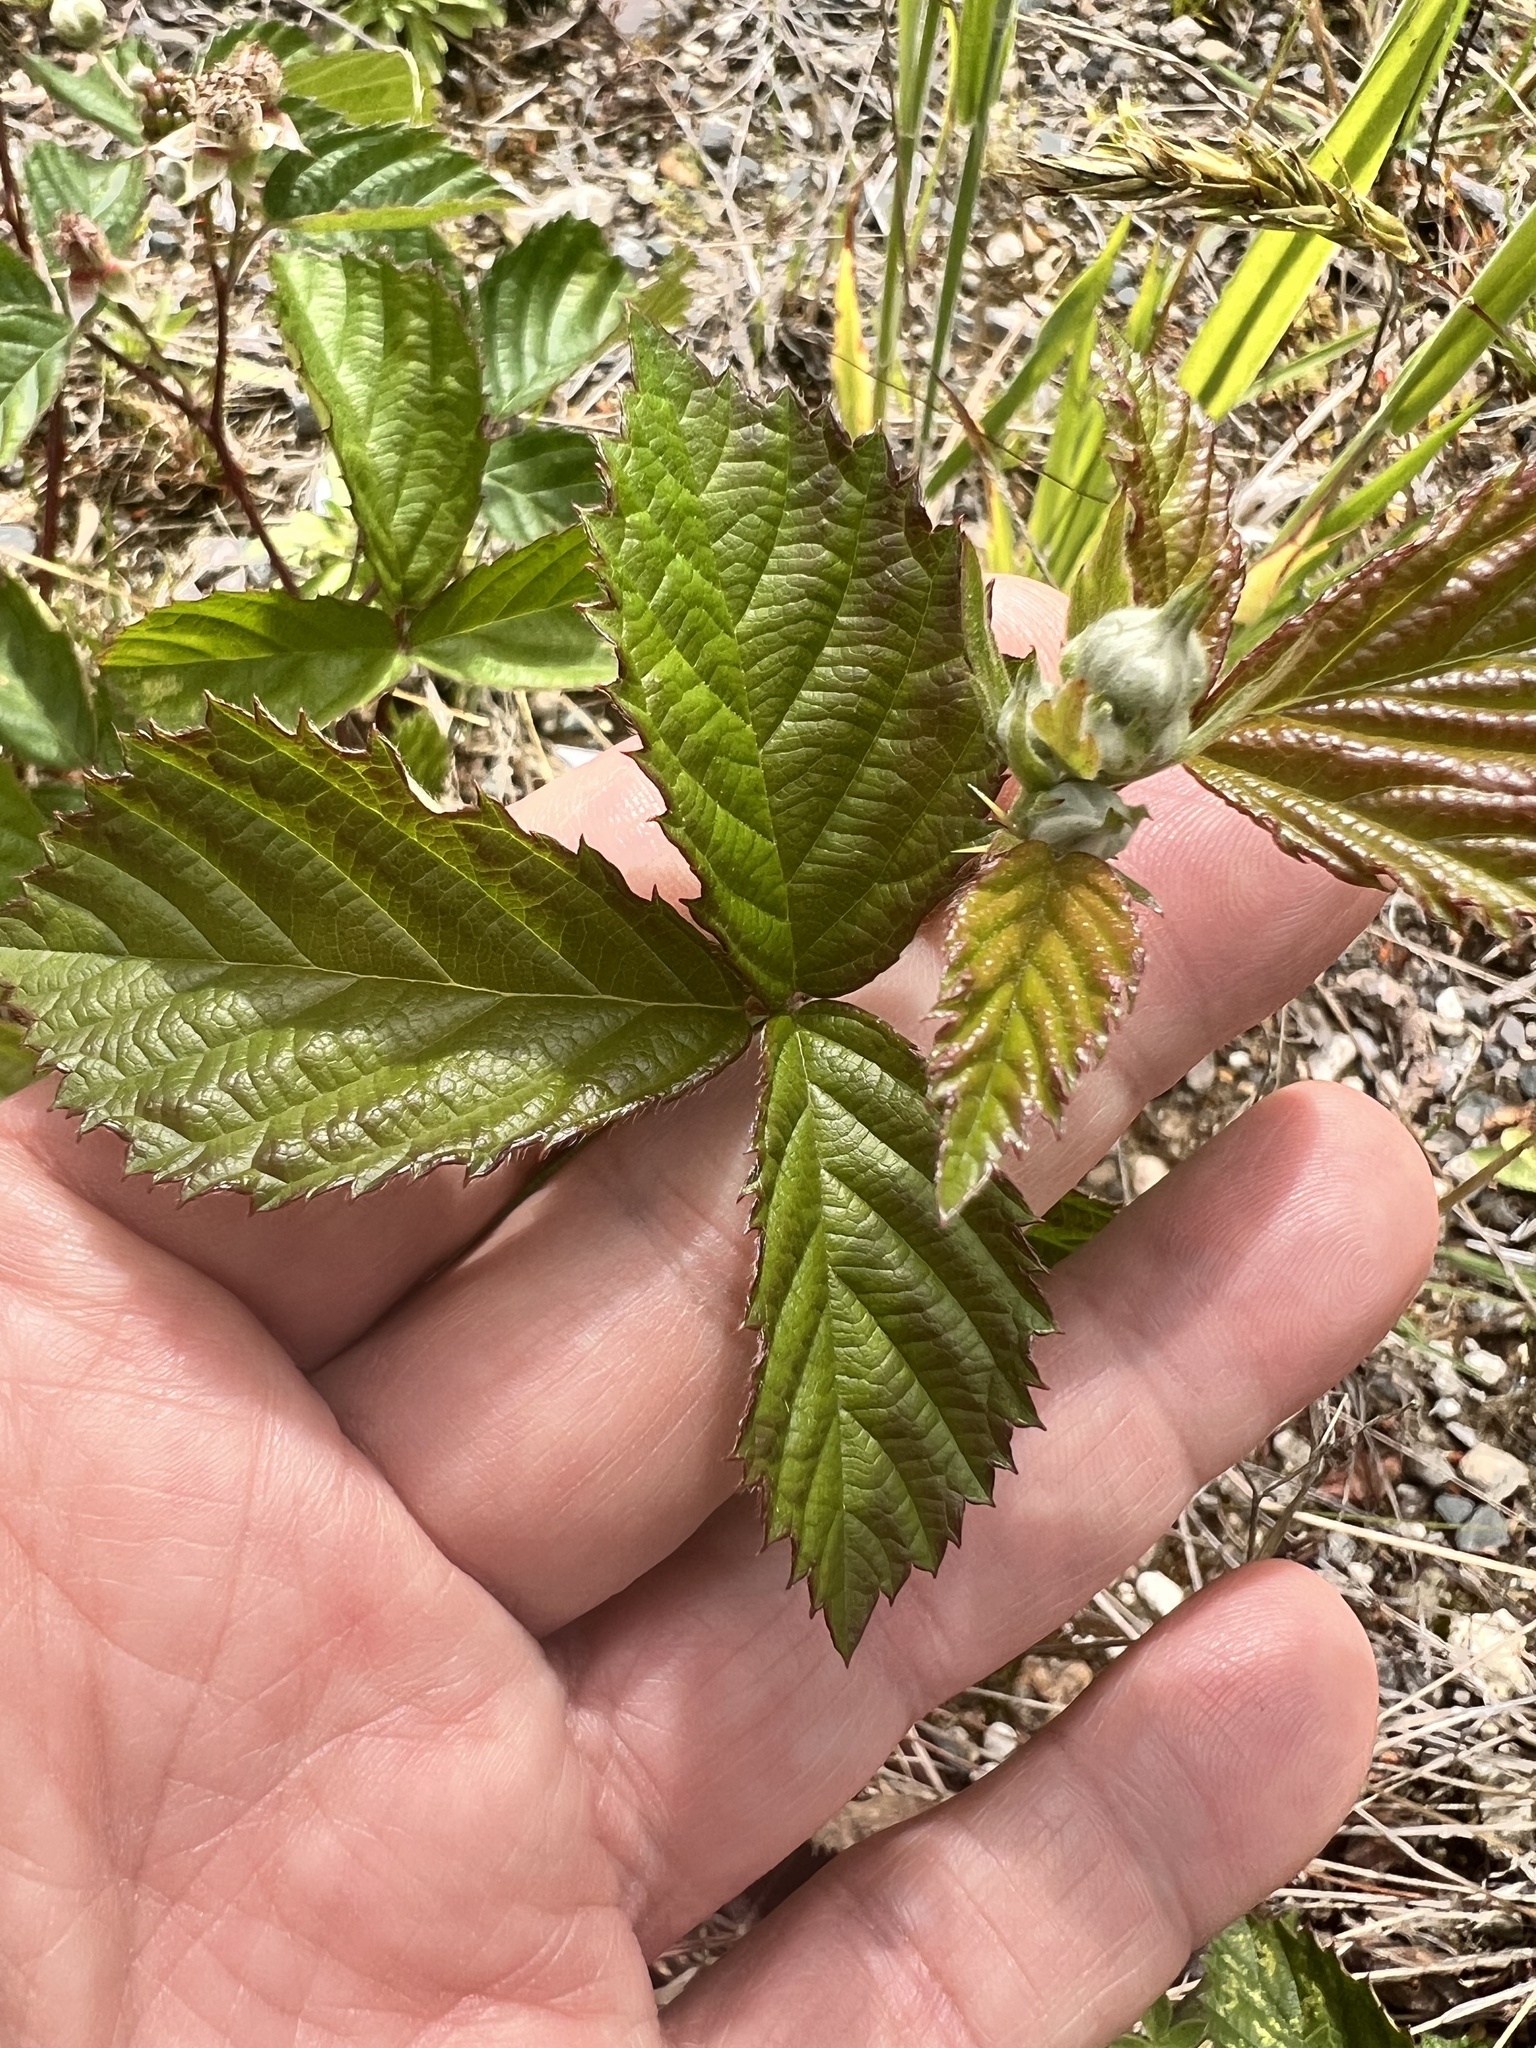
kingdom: Plantae
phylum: Tracheophyta
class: Magnoliopsida
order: Rosales
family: Rosaceae
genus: Rubus
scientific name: Rubus fruticosus
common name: Blackberry, bramble
